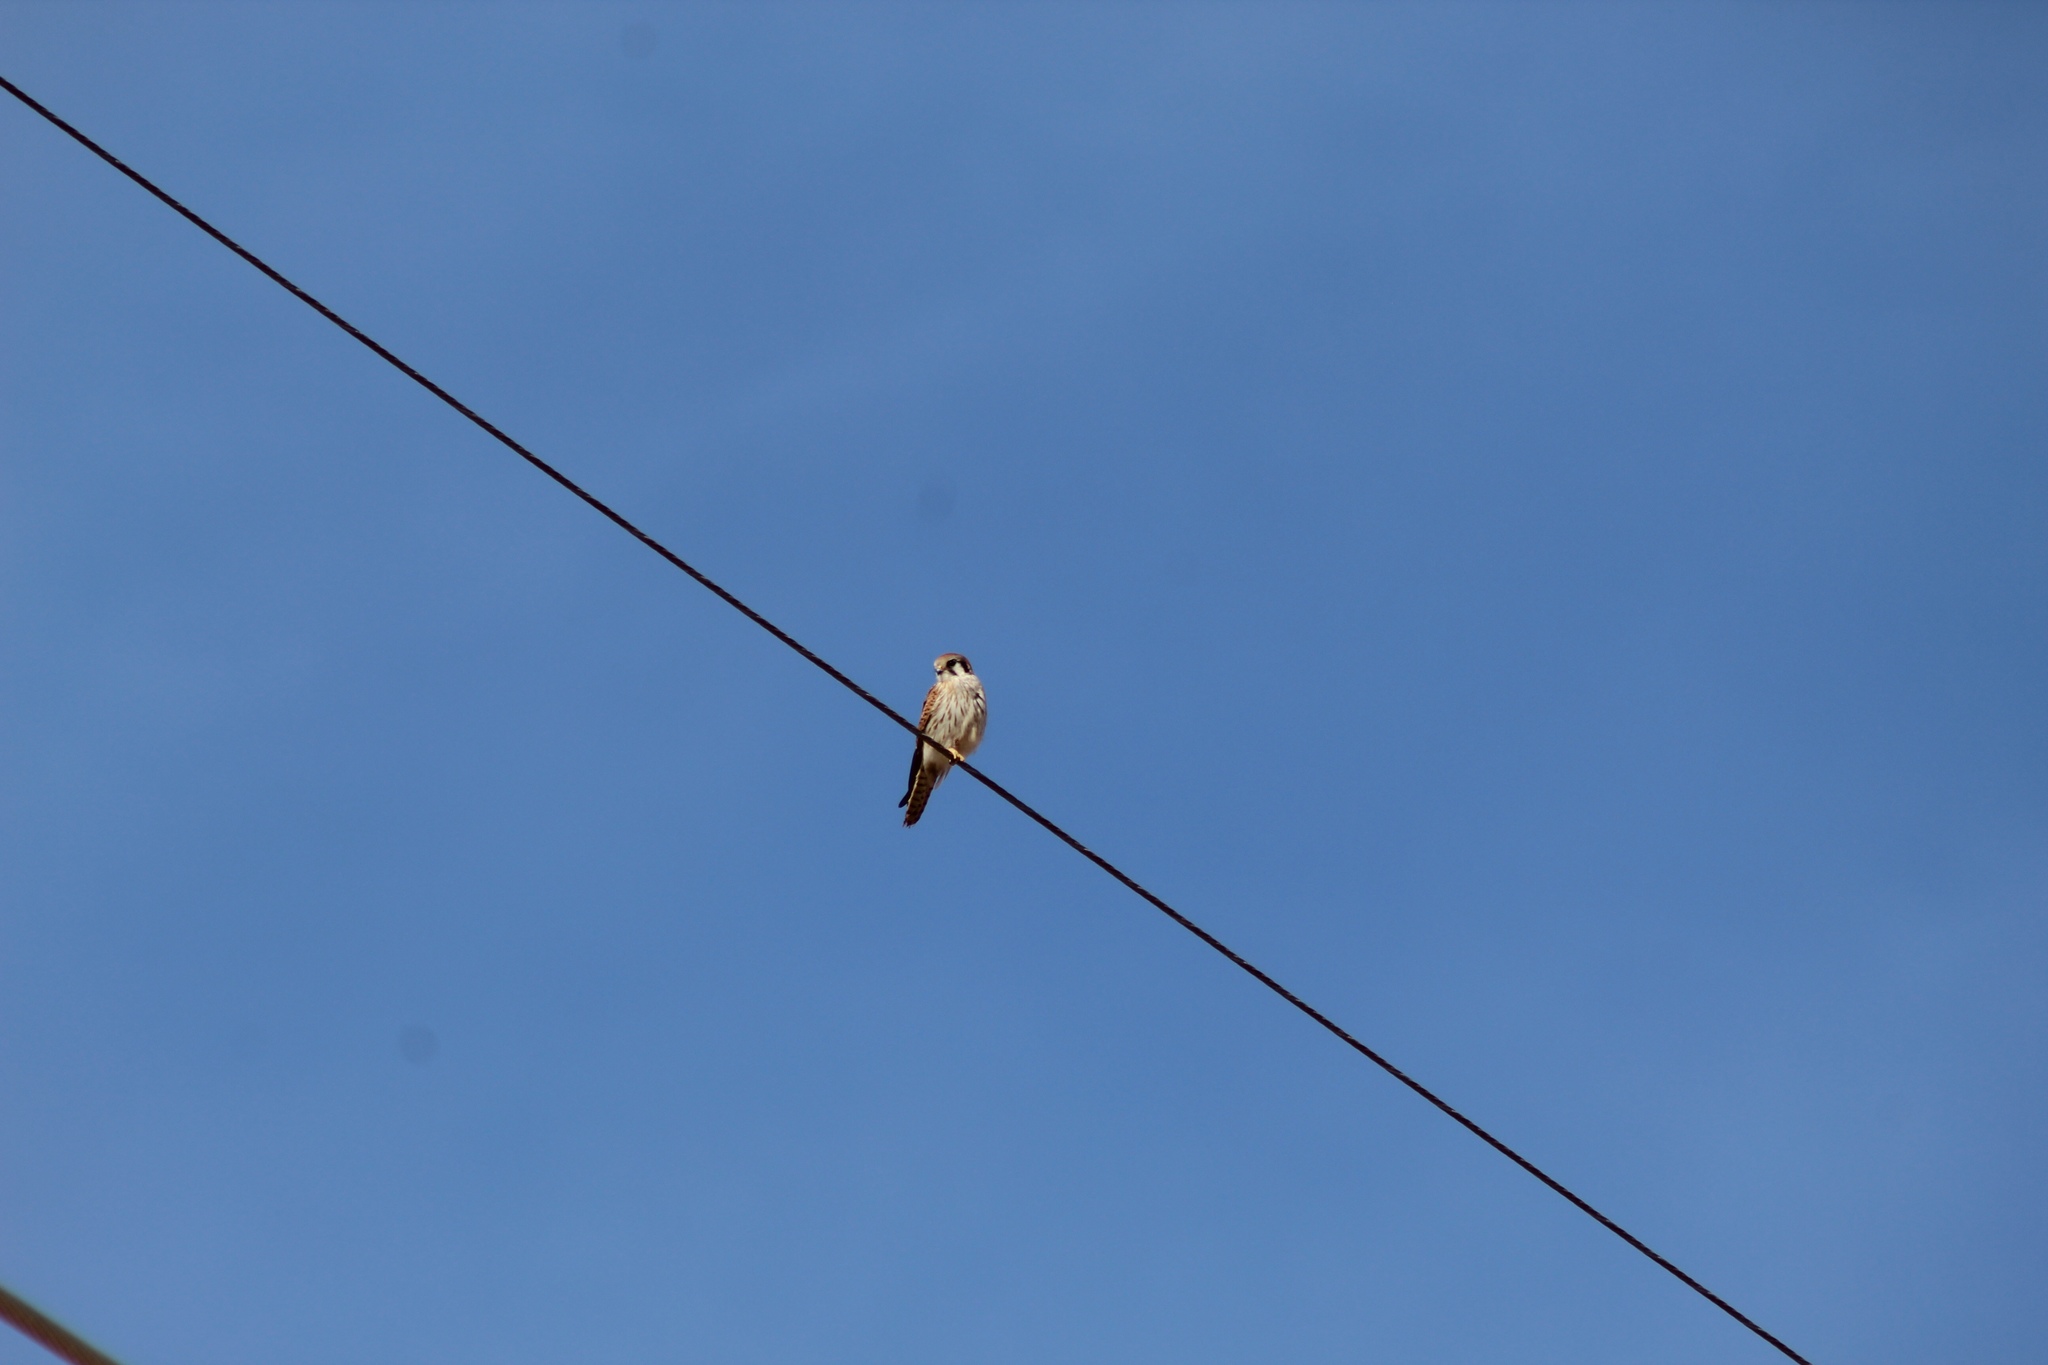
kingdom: Animalia
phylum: Chordata
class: Aves
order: Falconiformes
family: Falconidae
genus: Falco
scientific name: Falco sparverius
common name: American kestrel
